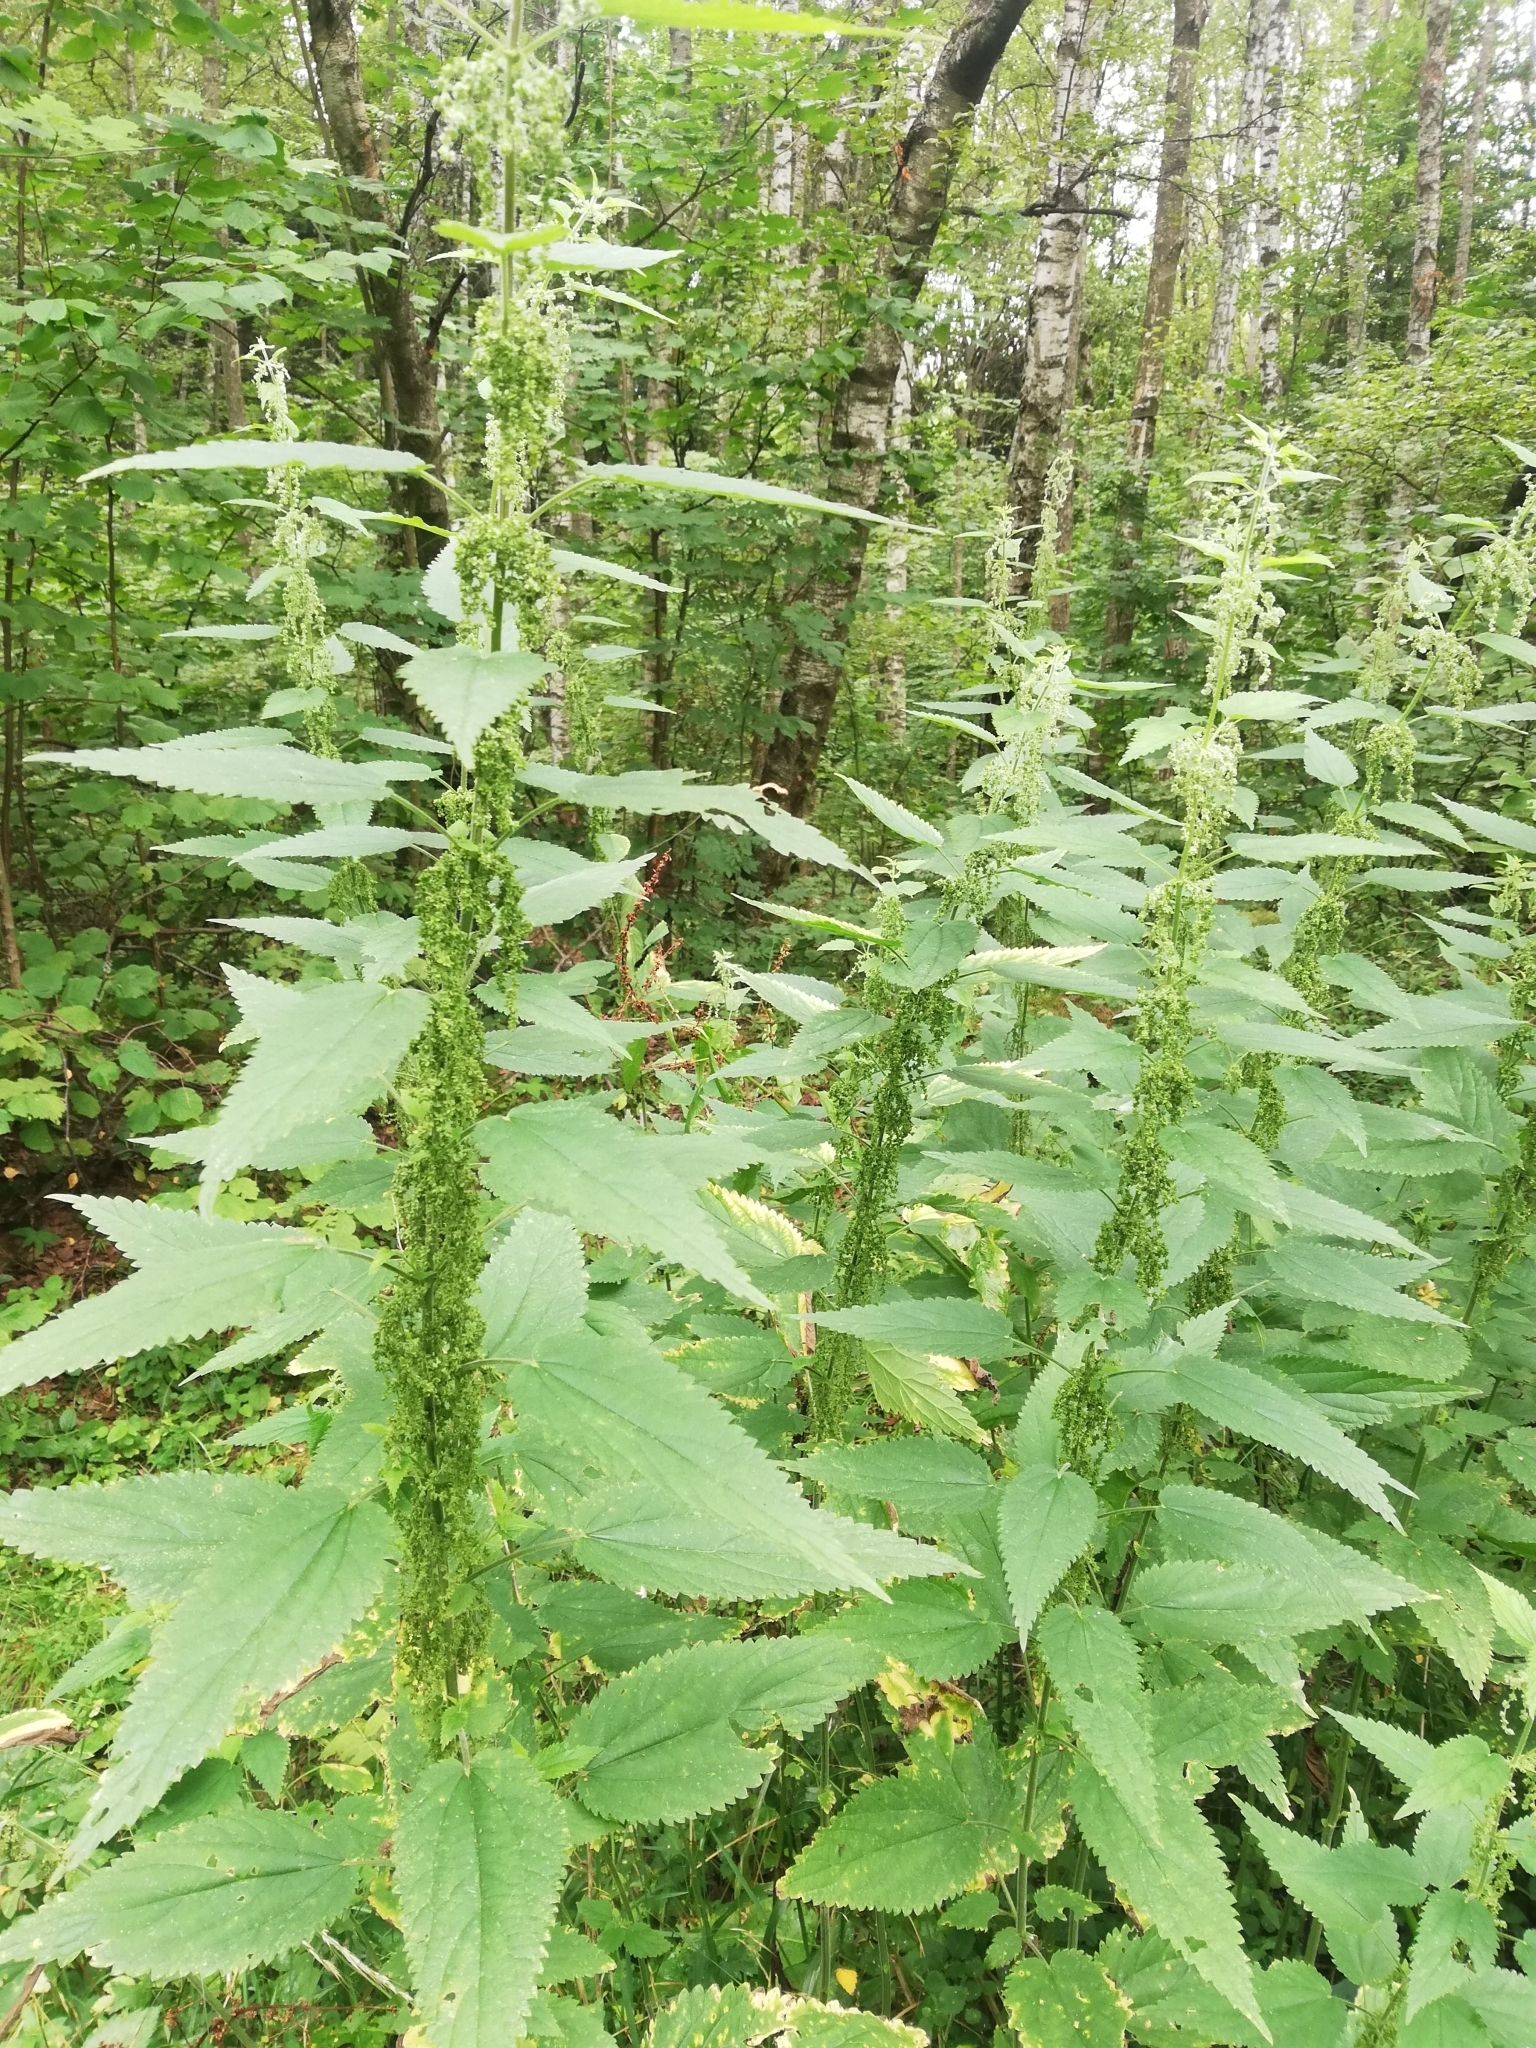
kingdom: Plantae
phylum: Tracheophyta
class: Magnoliopsida
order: Rosales
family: Urticaceae
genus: Urtica
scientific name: Urtica dioica
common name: Common nettle
